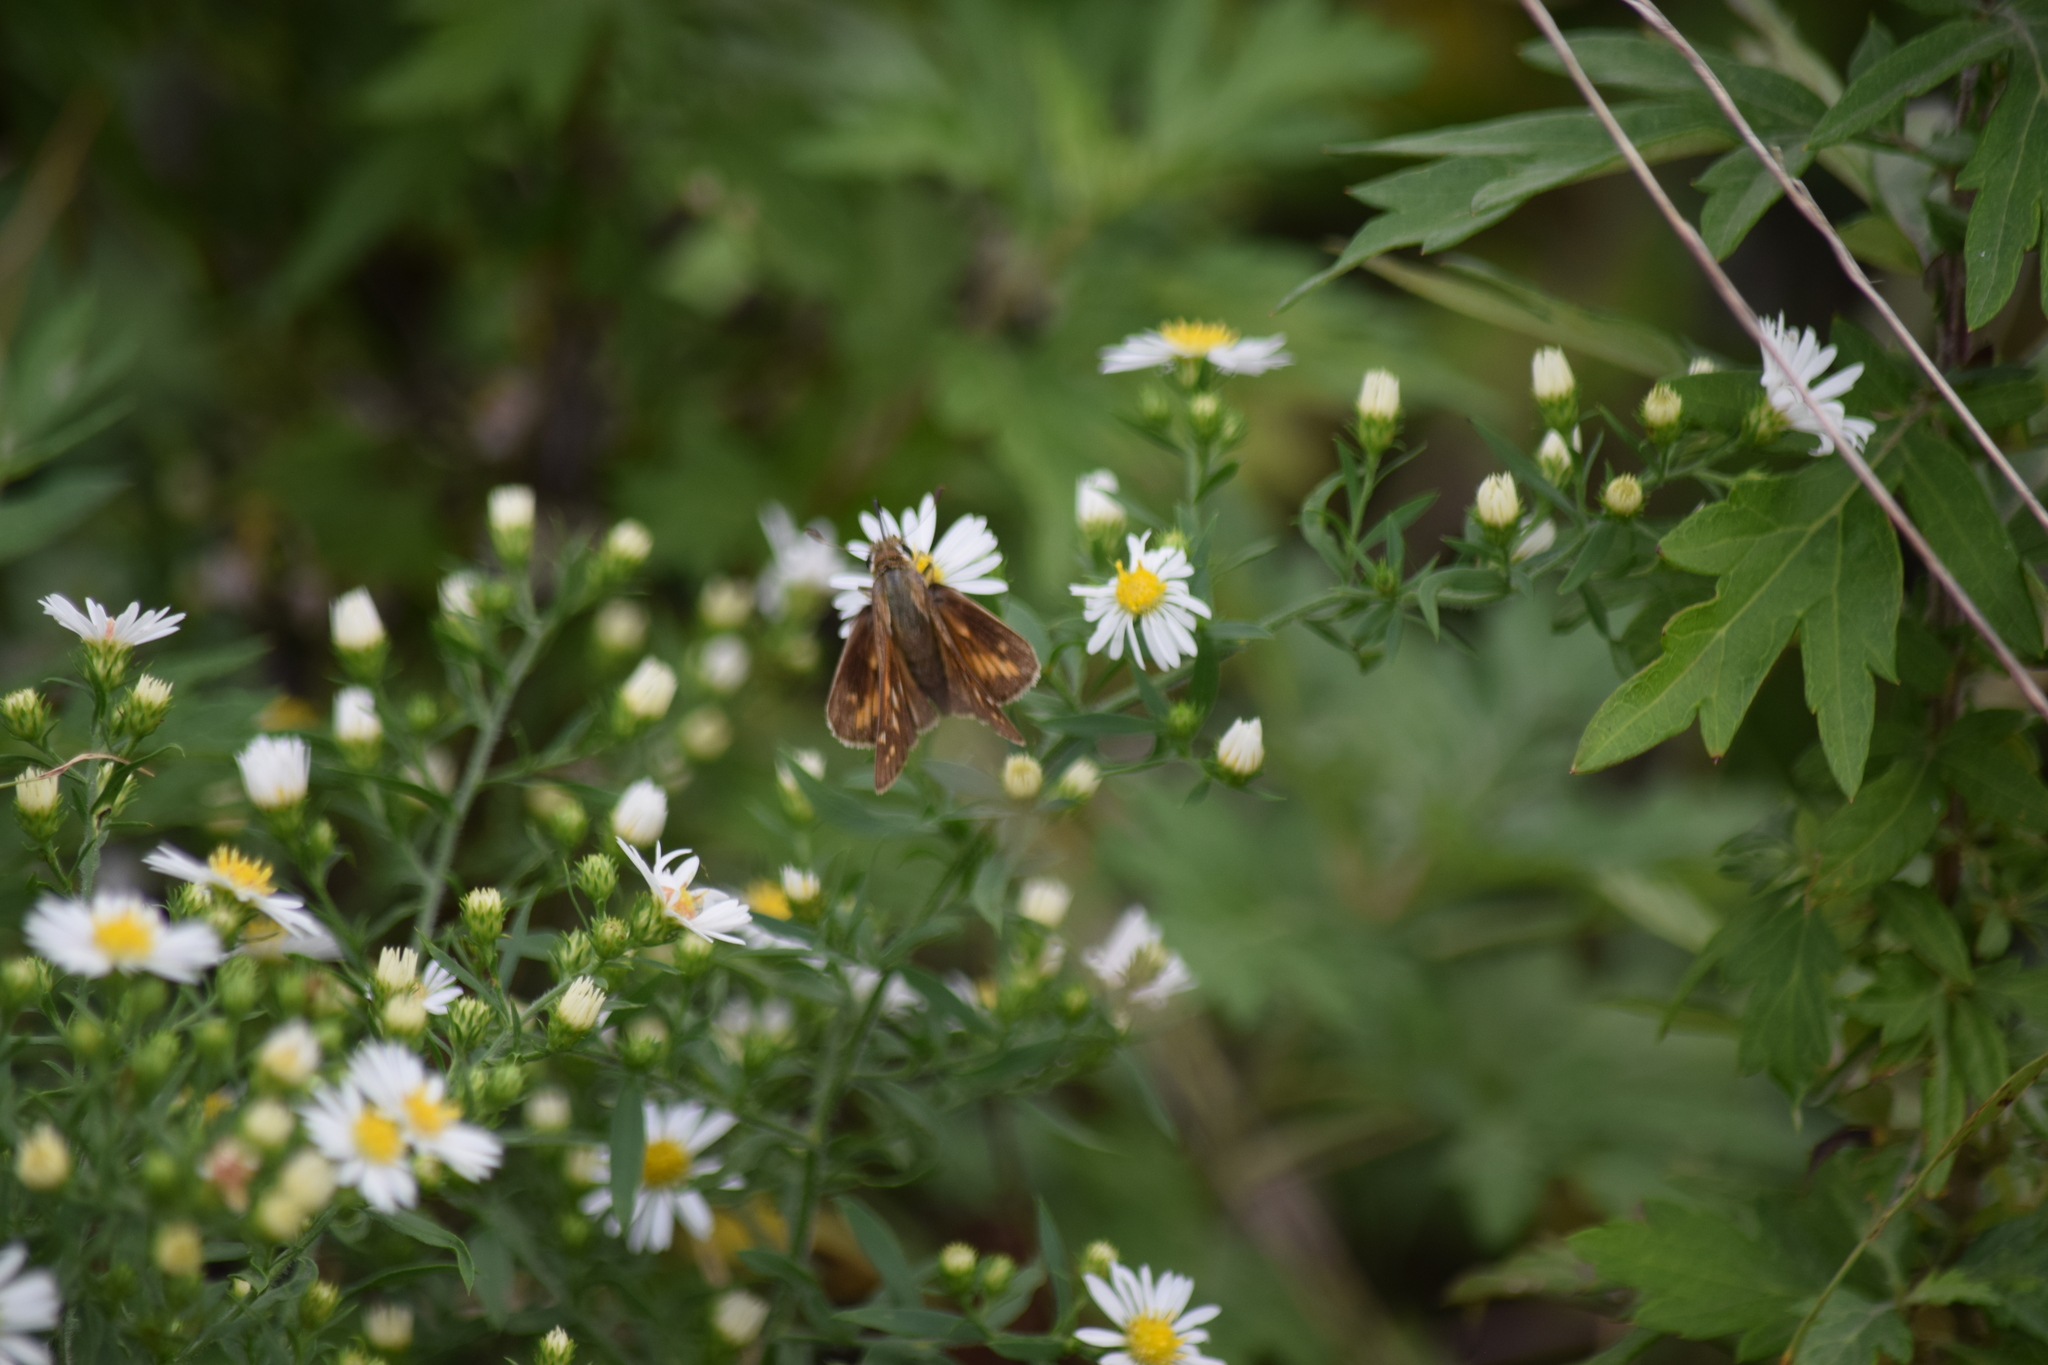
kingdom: Animalia
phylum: Arthropoda
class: Insecta
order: Lepidoptera
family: Hesperiidae
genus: Atalopedes
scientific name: Atalopedes
